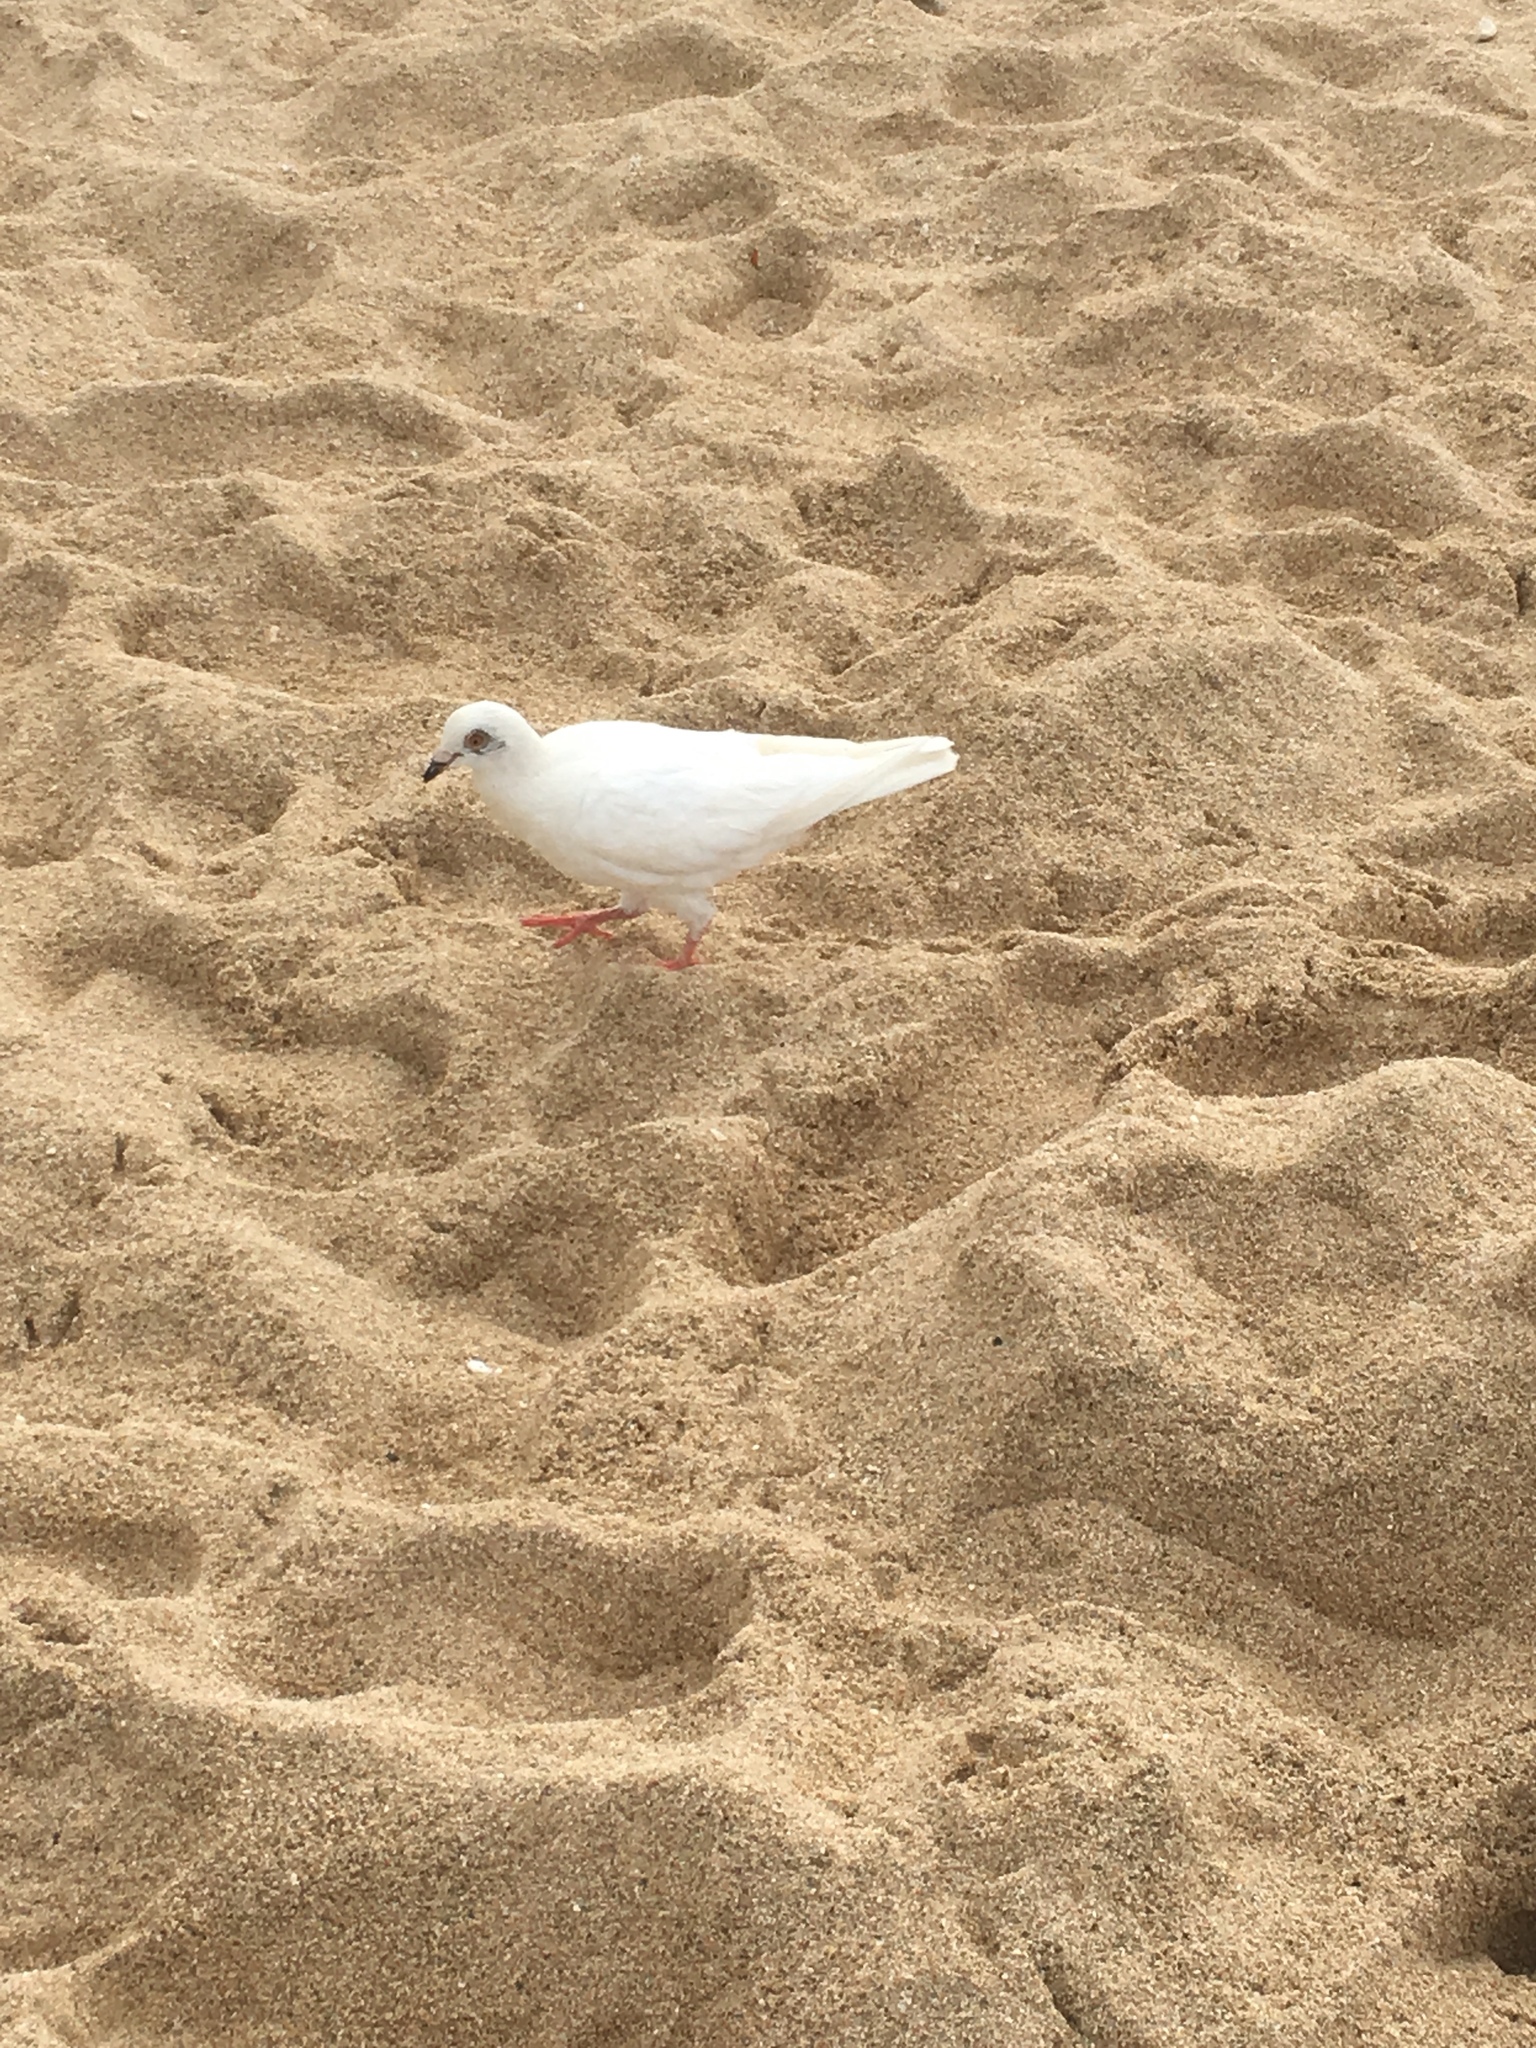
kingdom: Animalia
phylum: Chordata
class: Aves
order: Columbiformes
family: Columbidae
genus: Columba
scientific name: Columba livia
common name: Rock pigeon
